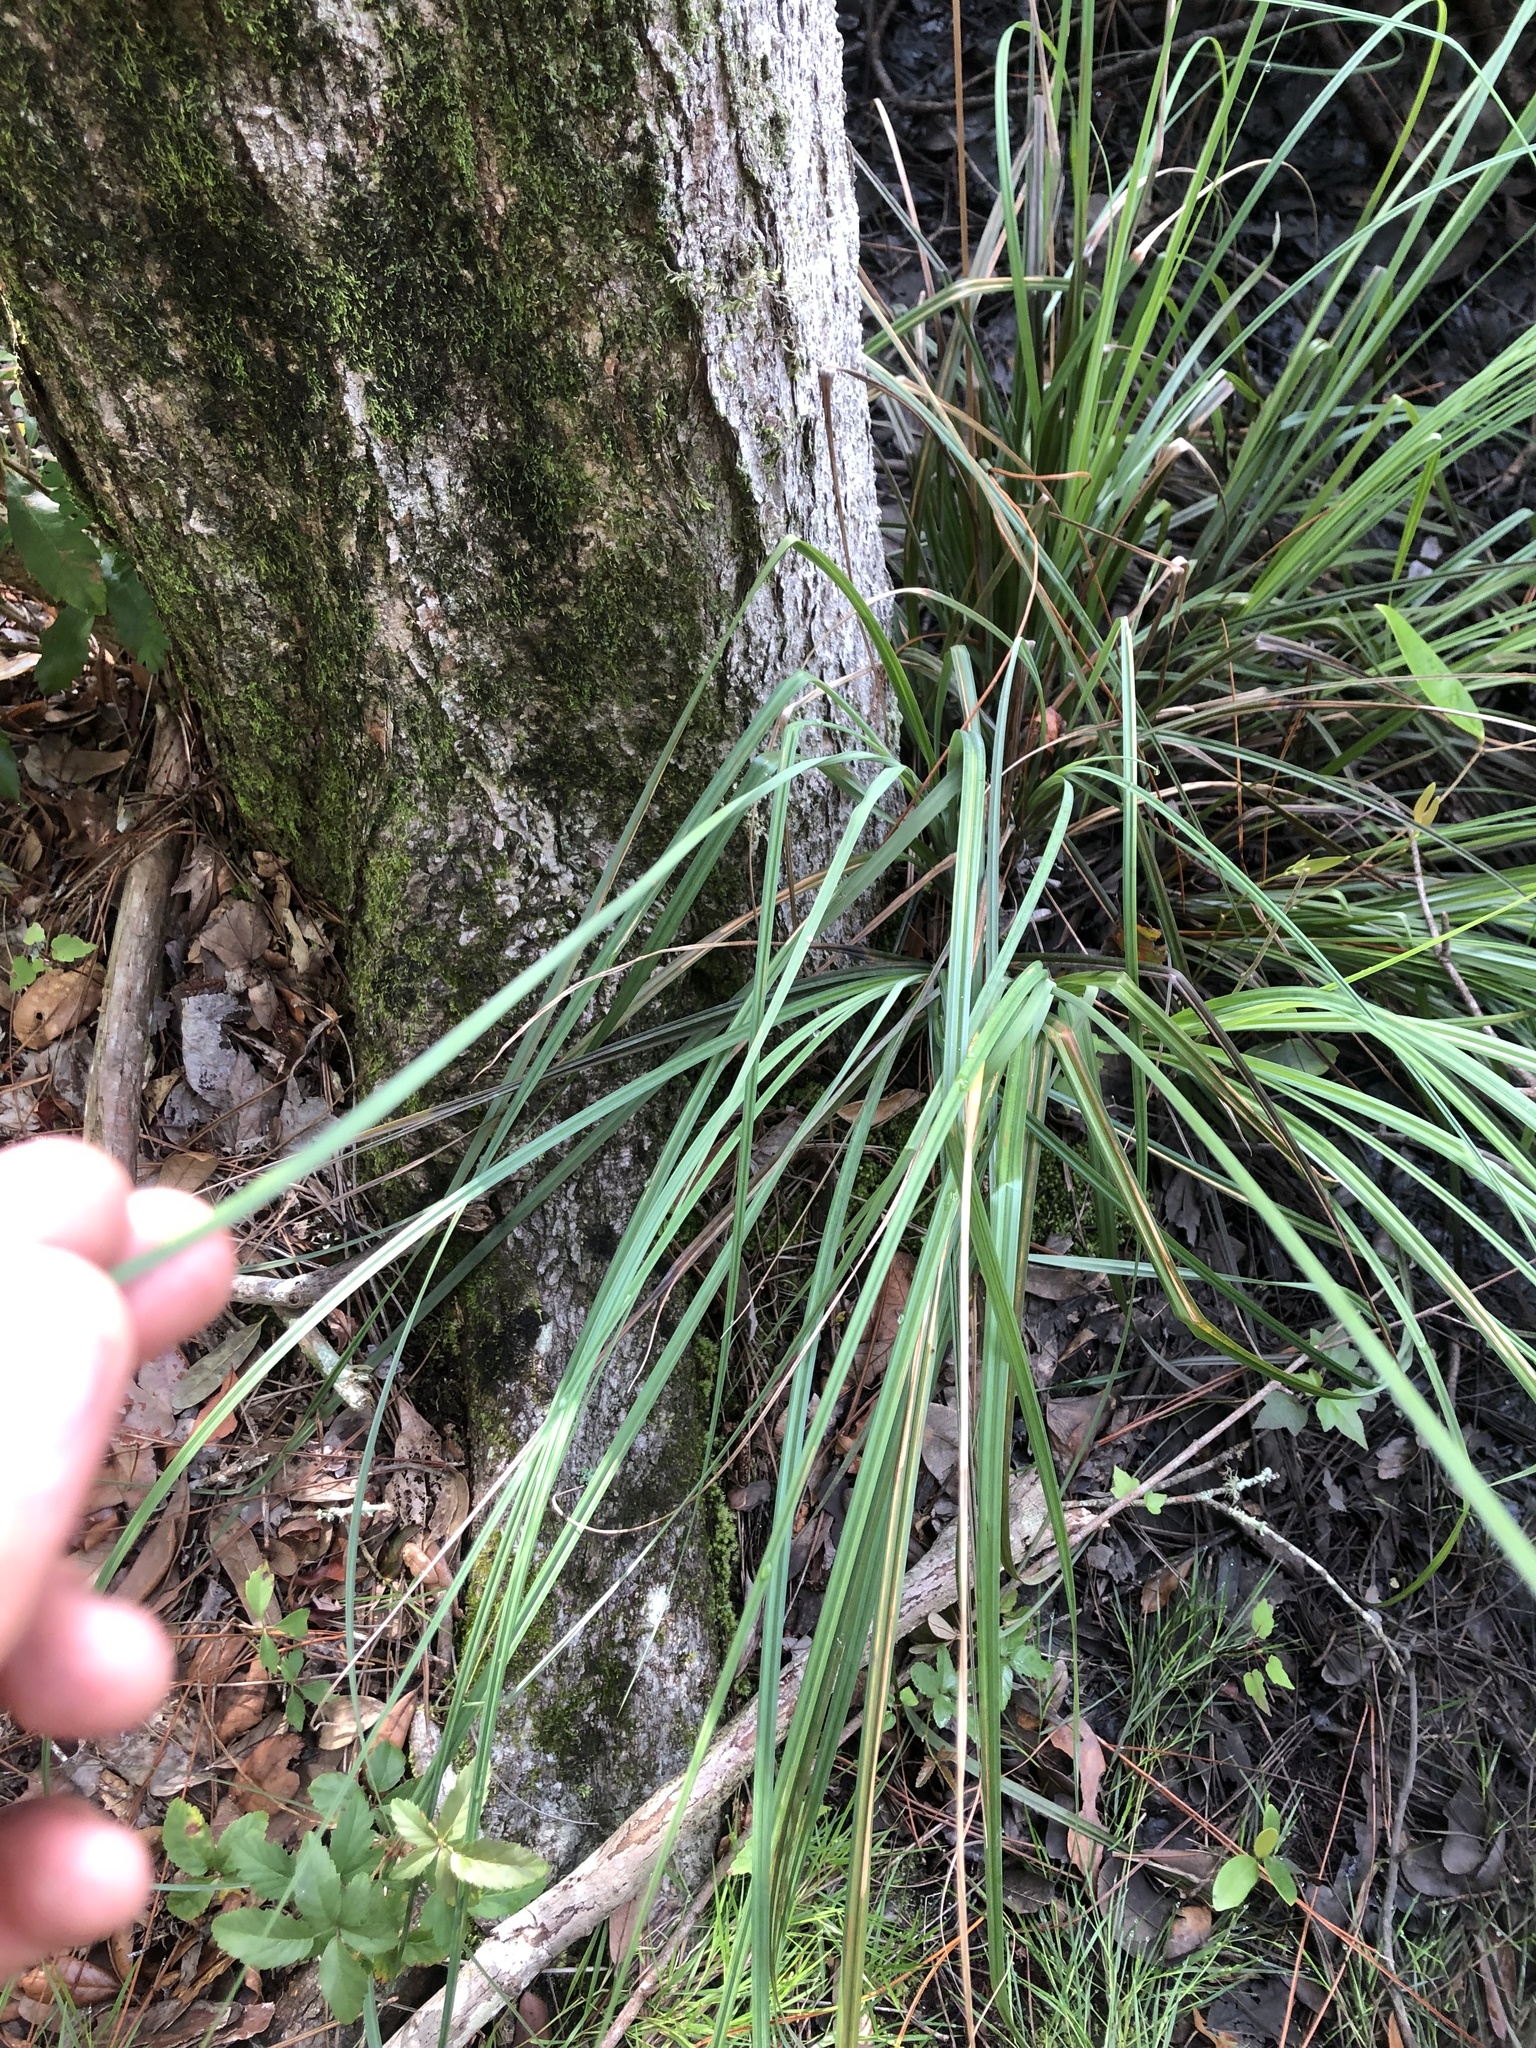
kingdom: Plantae
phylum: Tracheophyta
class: Liliopsida
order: Poales
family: Cyperaceae
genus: Carex
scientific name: Carex verrucosa
